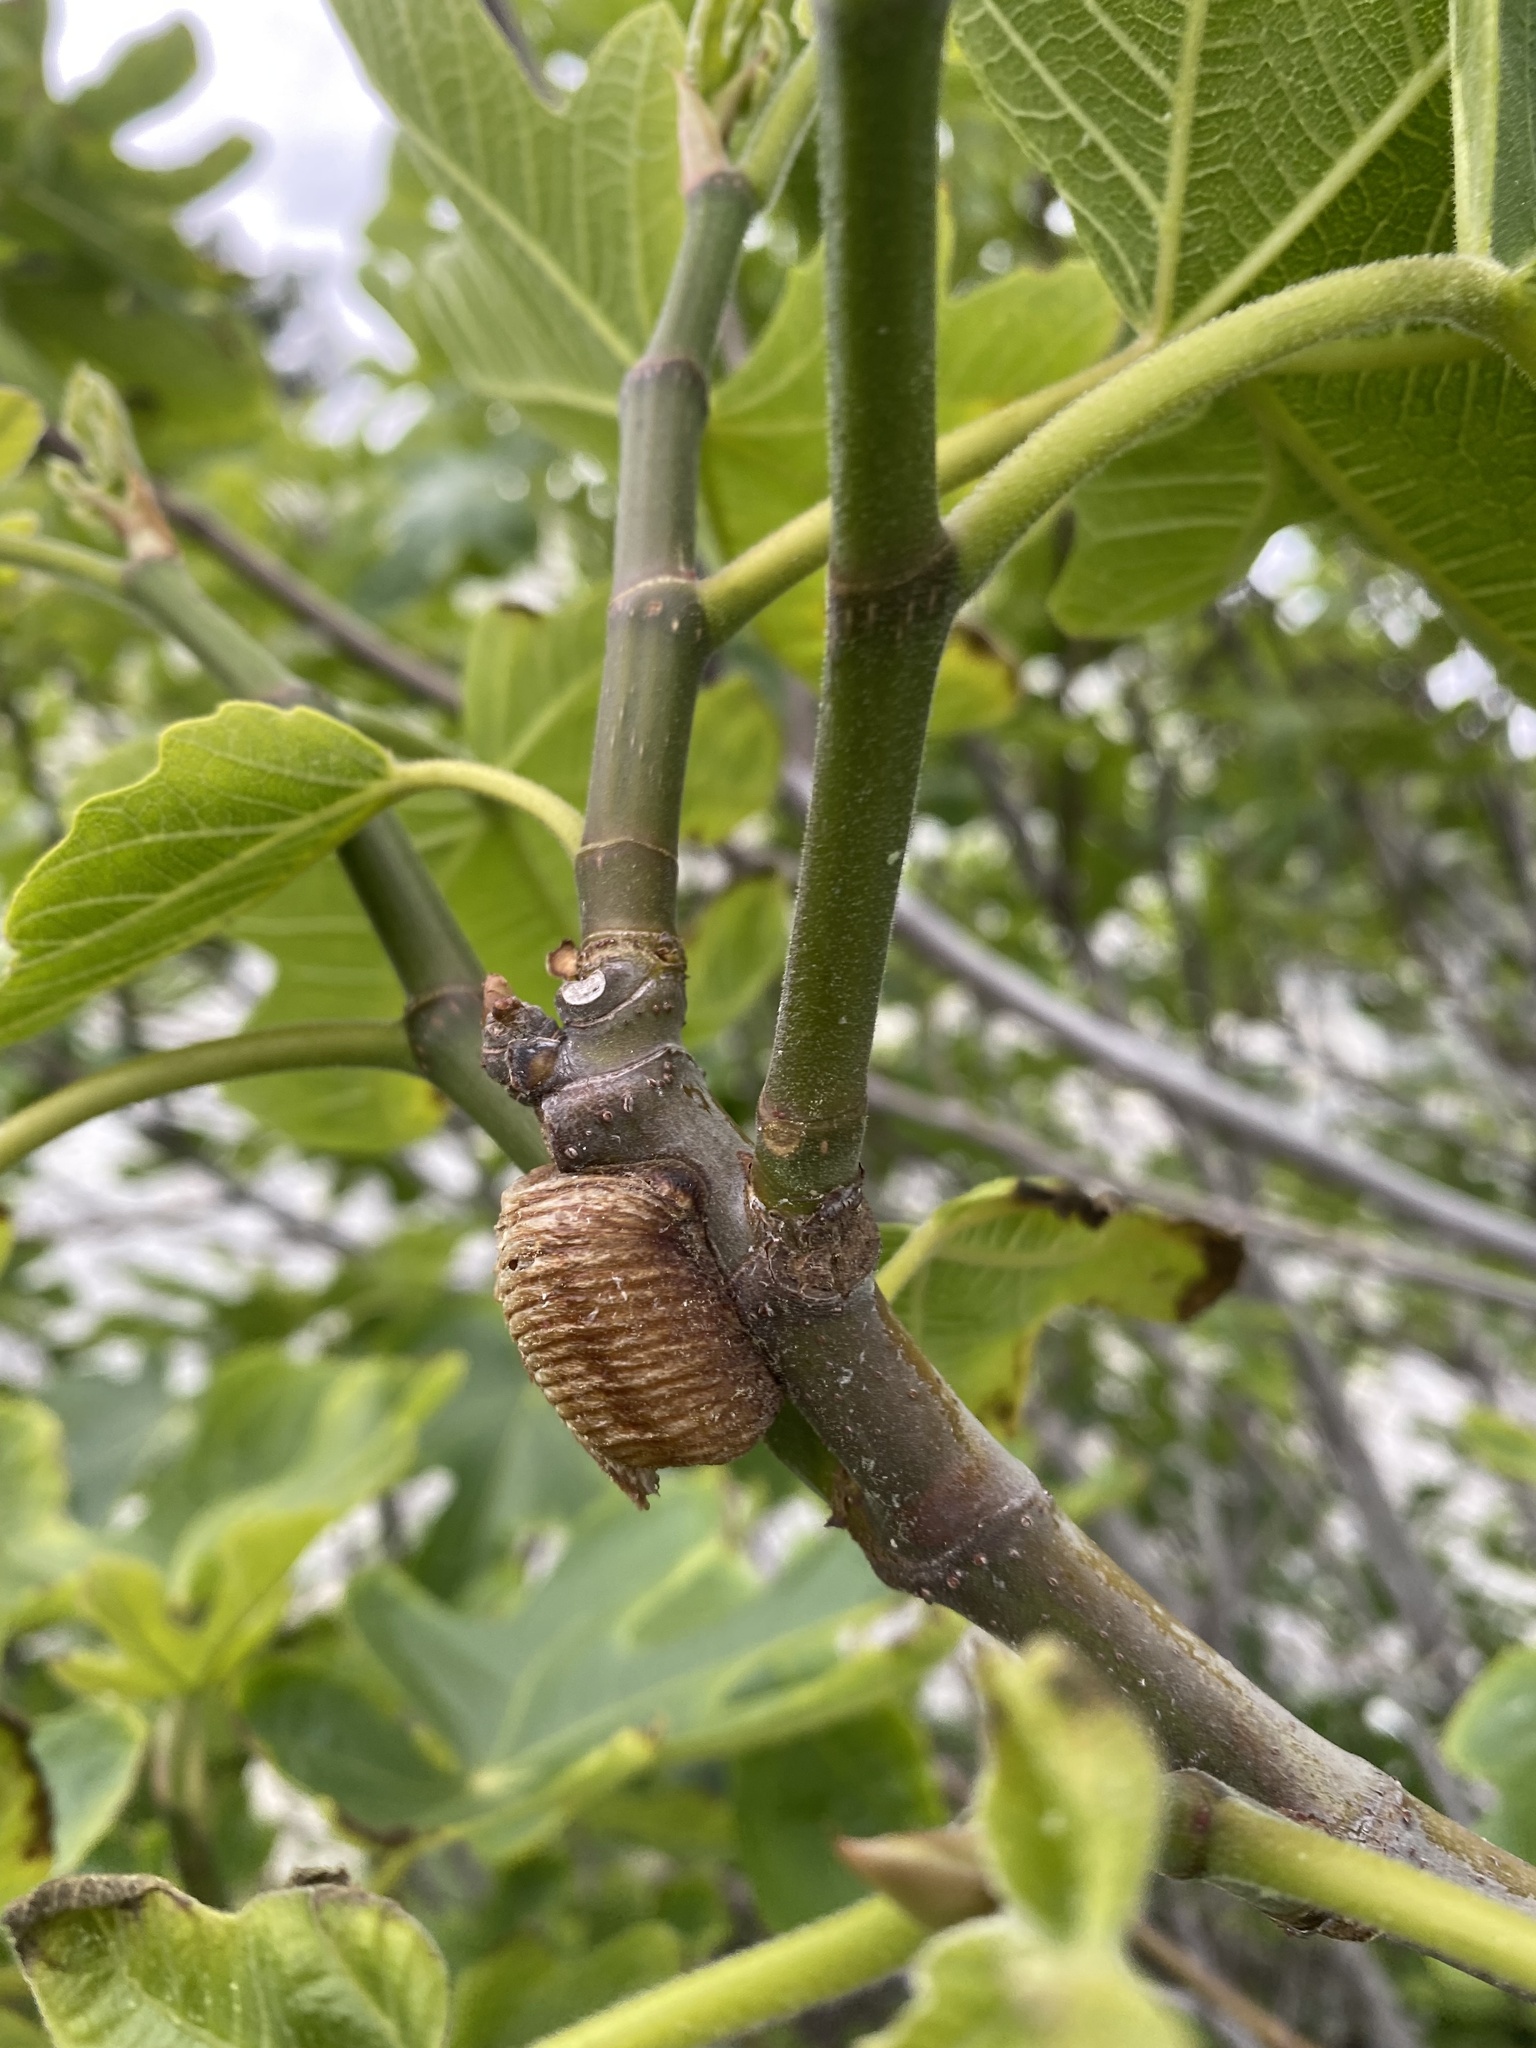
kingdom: Animalia
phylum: Arthropoda
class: Insecta
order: Mantodea
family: Mantidae
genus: Hierodula
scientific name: Hierodula transcaucasica
